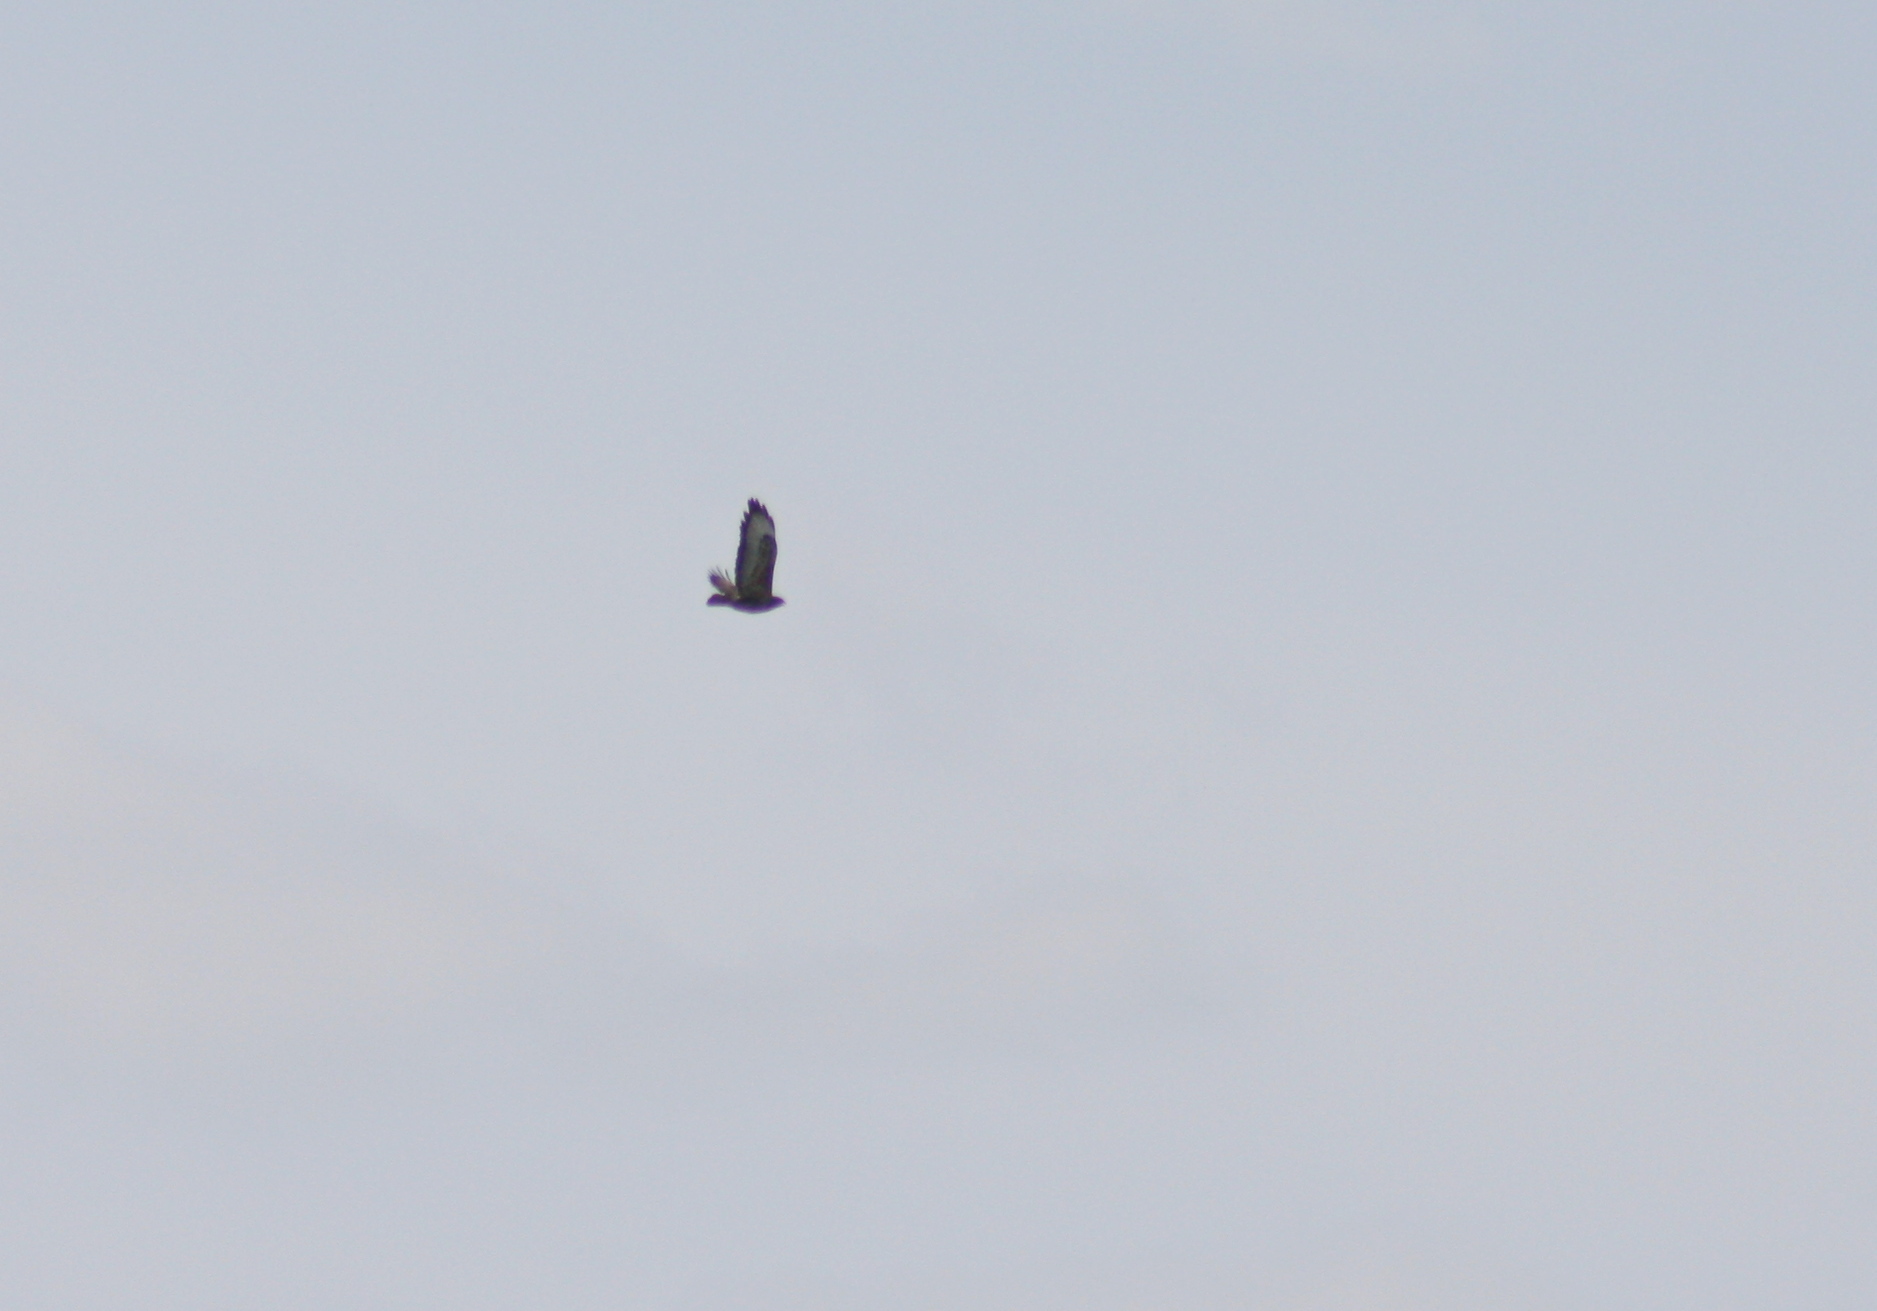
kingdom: Animalia
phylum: Chordata
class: Aves
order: Accipitriformes
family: Accipitridae
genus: Buteo
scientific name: Buteo buteo
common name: Common buzzard
